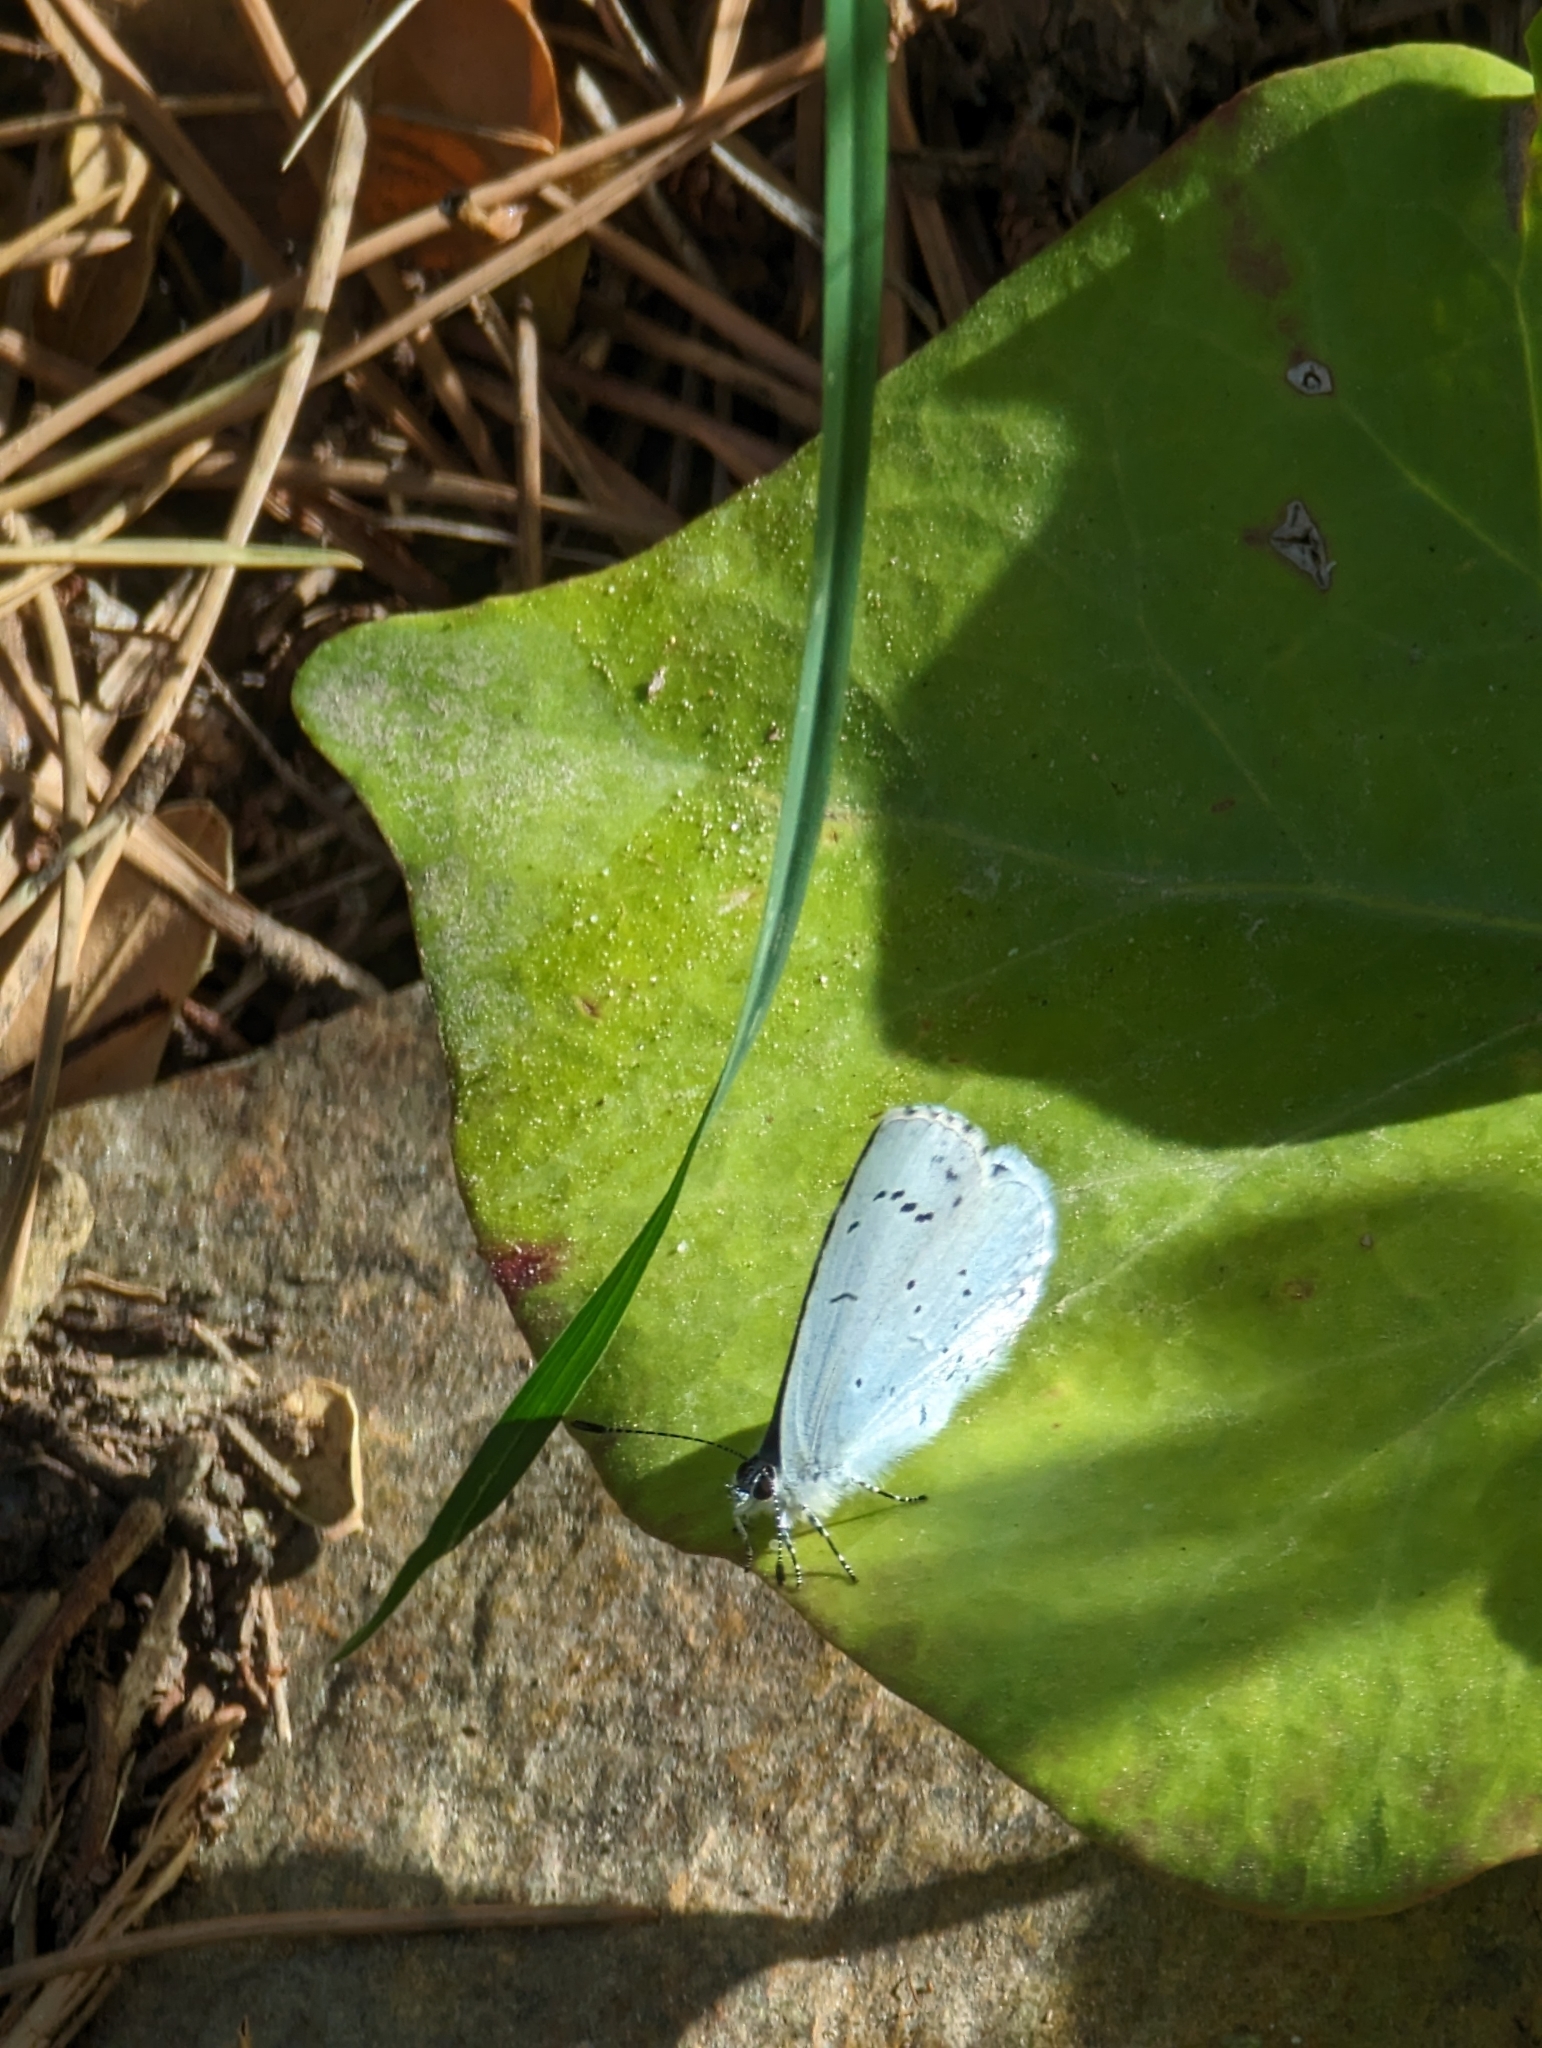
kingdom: Animalia
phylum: Arthropoda
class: Insecta
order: Lepidoptera
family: Lycaenidae
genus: Celastrina
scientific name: Celastrina argiolus
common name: Holly blue
